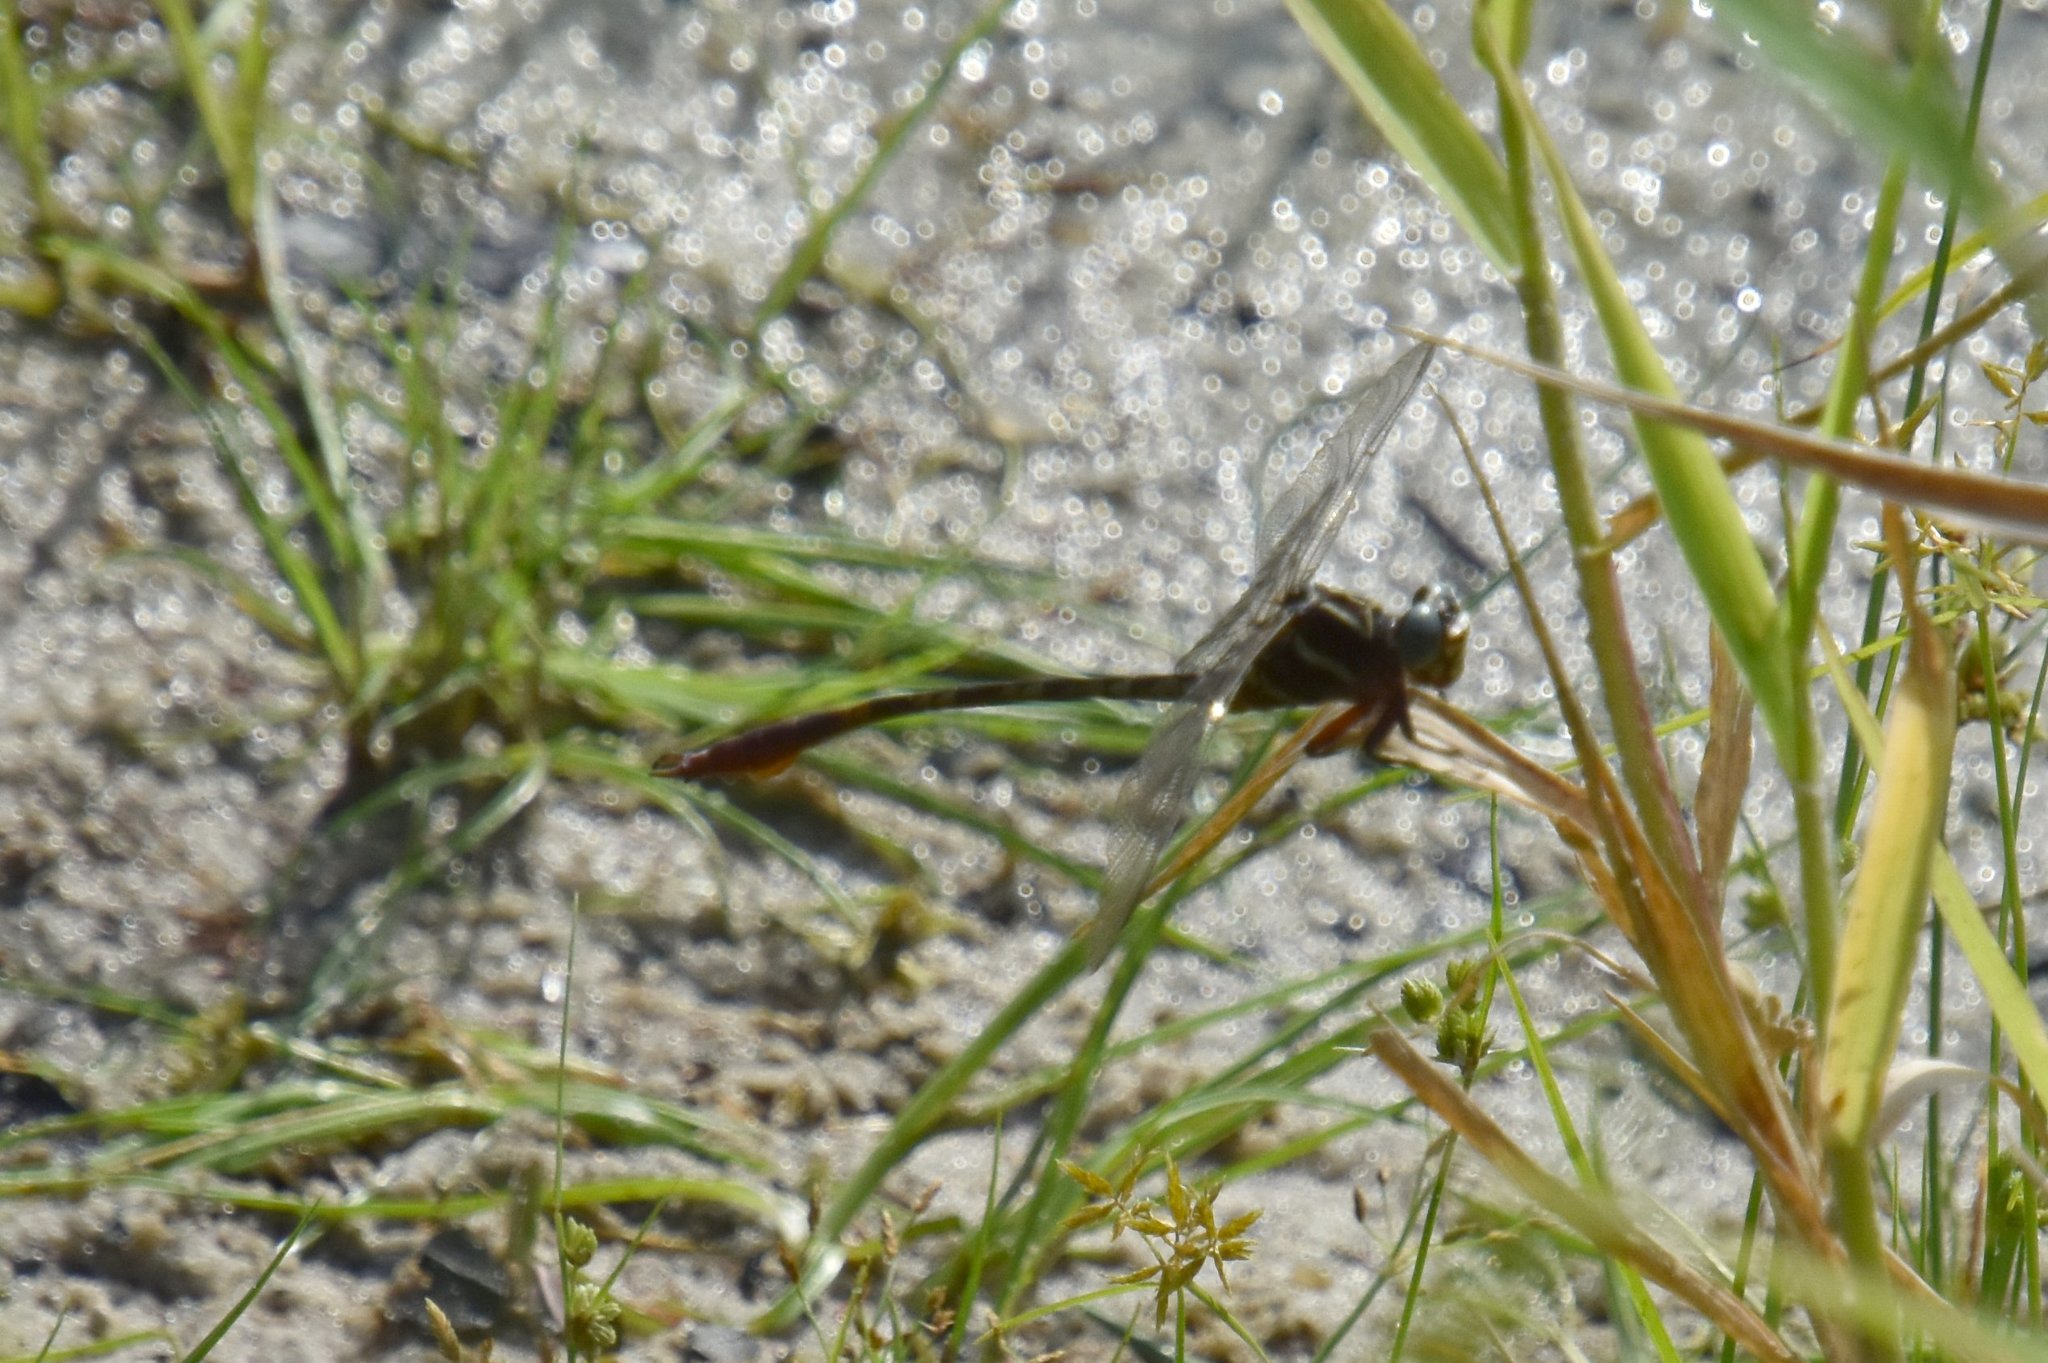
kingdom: Animalia
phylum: Arthropoda
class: Insecta
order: Odonata
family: Gomphidae
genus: Aphylla
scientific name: Aphylla williamsoni
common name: Two-striped forceptail
